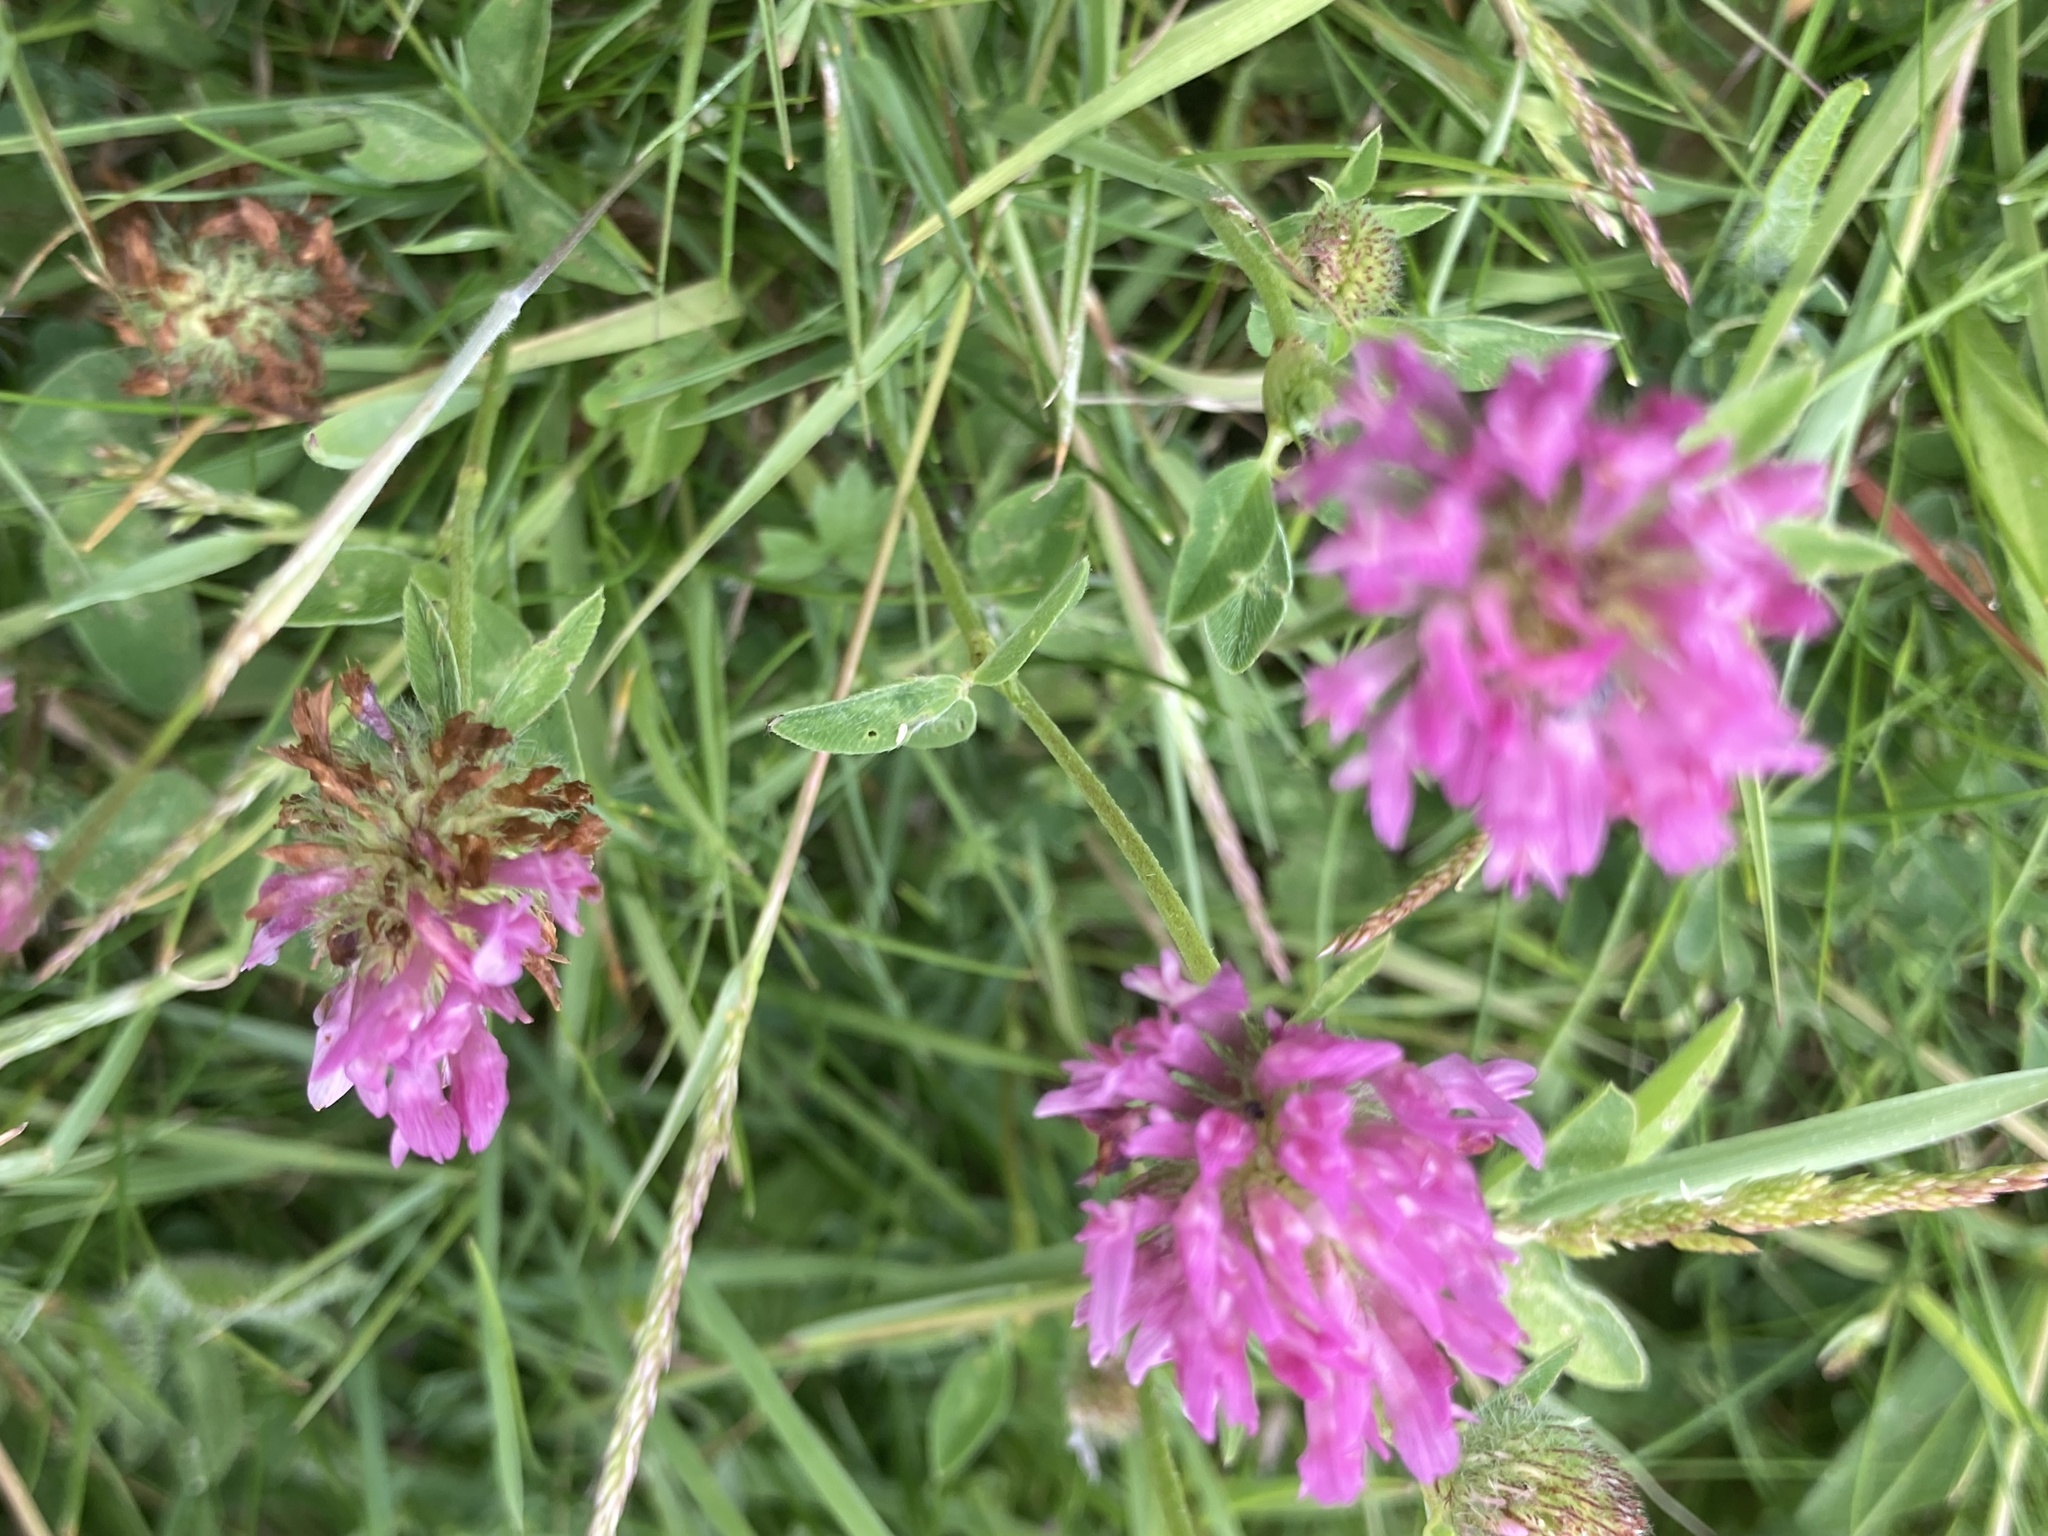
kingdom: Plantae
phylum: Tracheophyta
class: Magnoliopsida
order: Fabales
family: Fabaceae
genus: Trifolium
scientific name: Trifolium pratense
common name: Red clover
